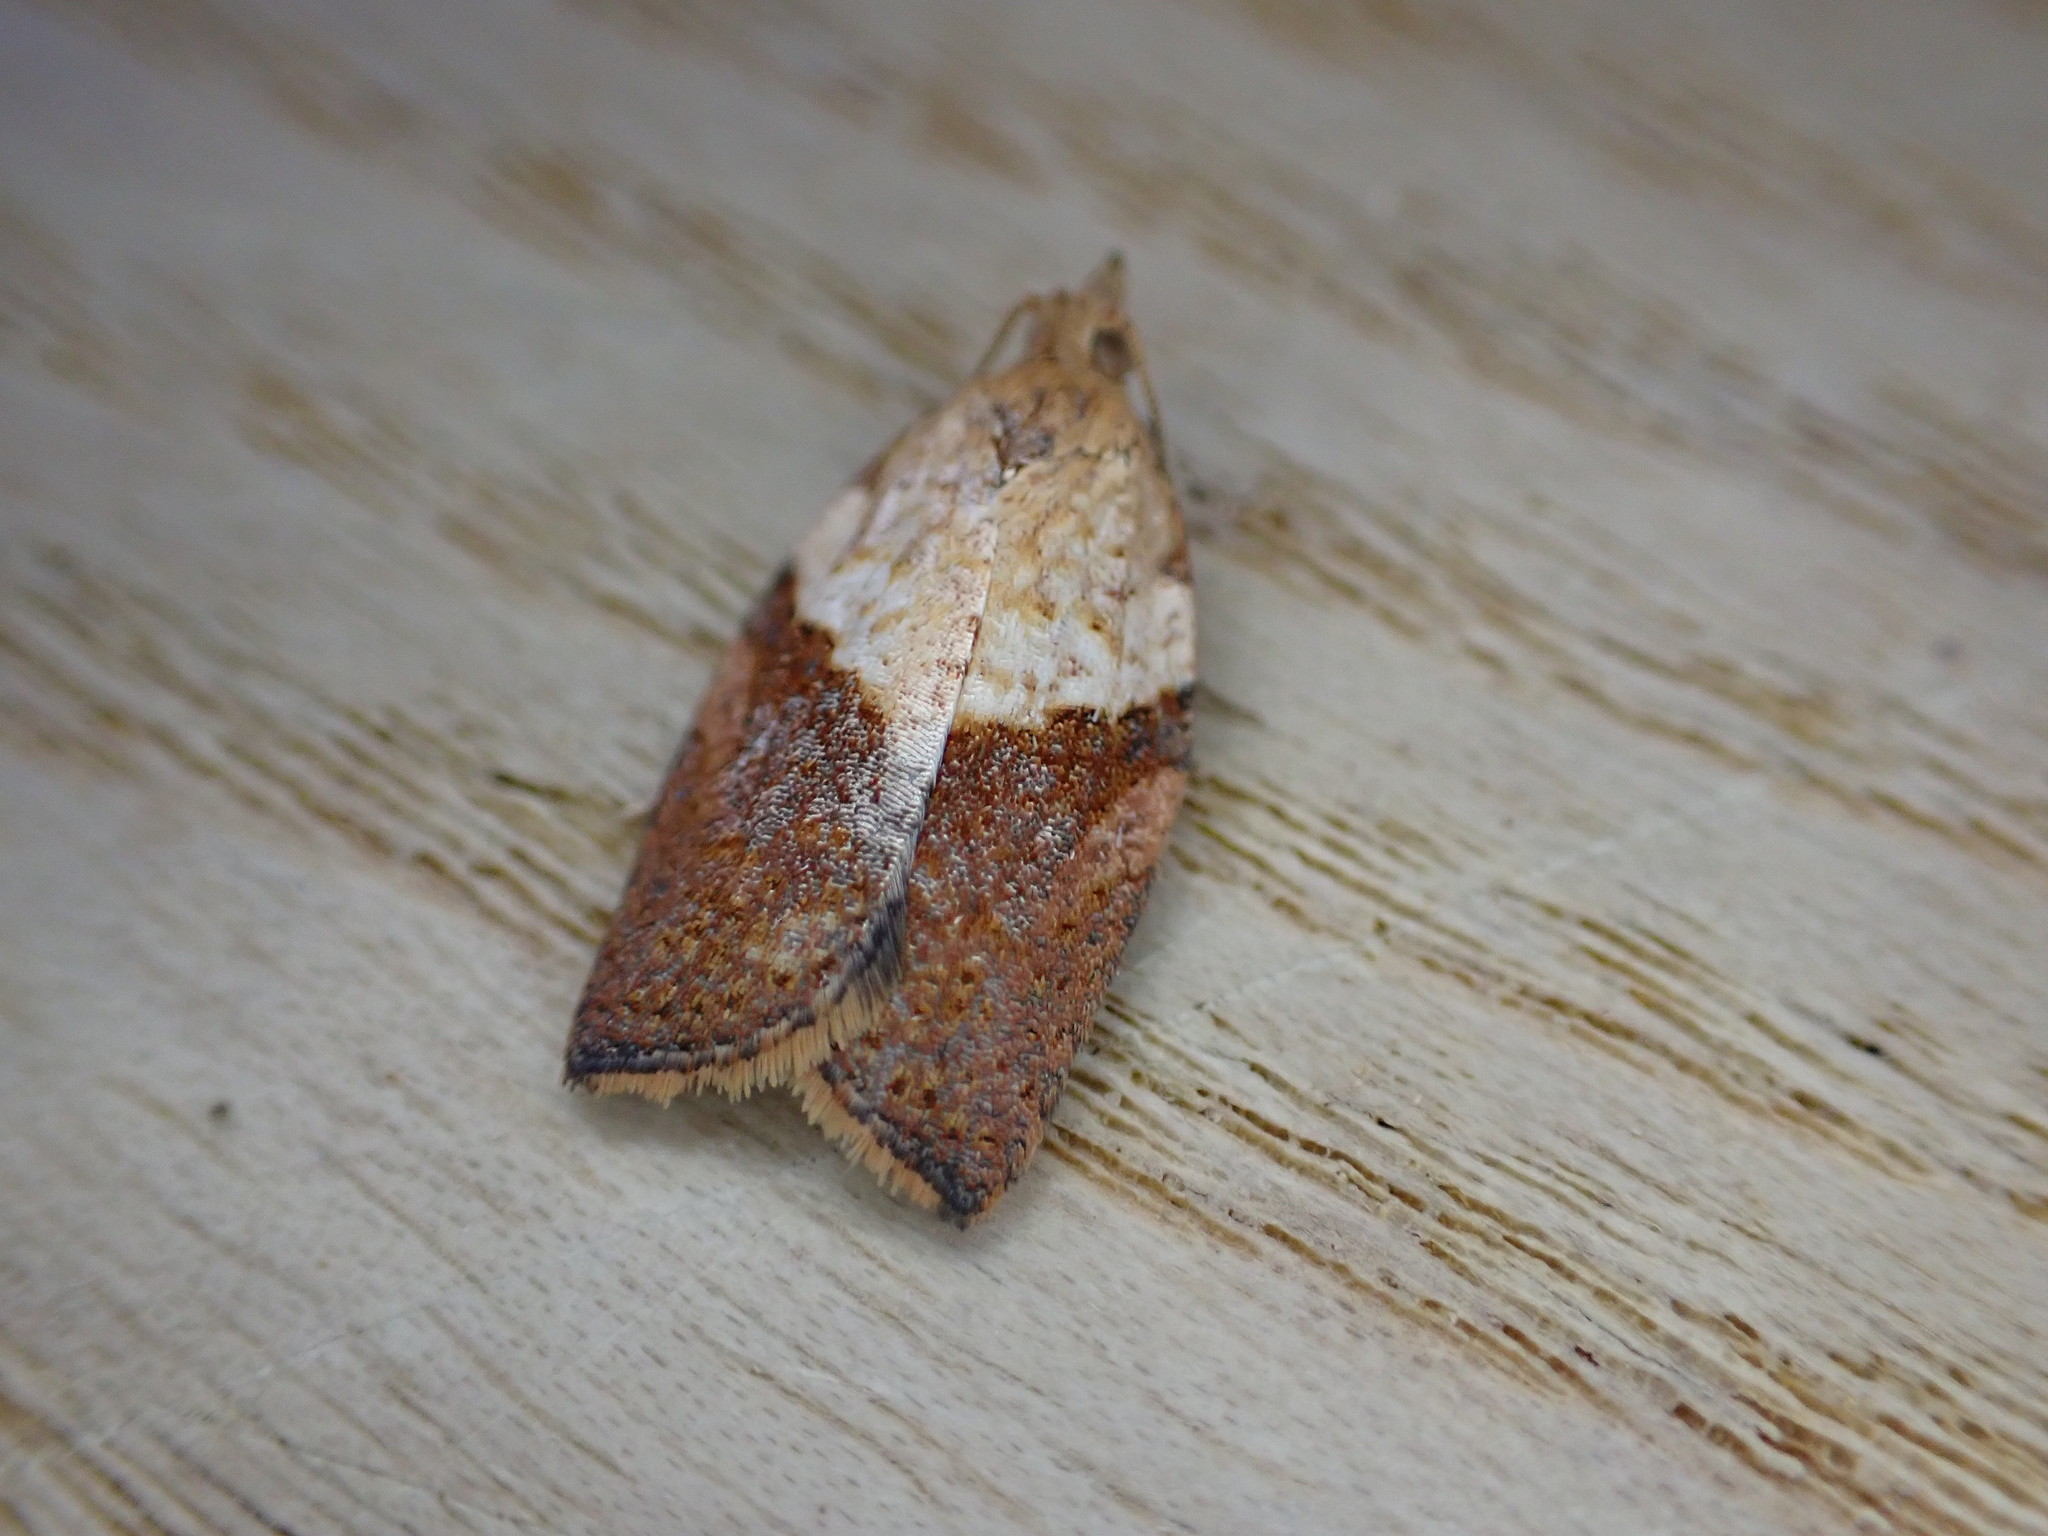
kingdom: Animalia
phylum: Arthropoda
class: Insecta
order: Lepidoptera
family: Tortricidae
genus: Epiphyas
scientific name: Epiphyas postvittana
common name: Light brown apple moth
